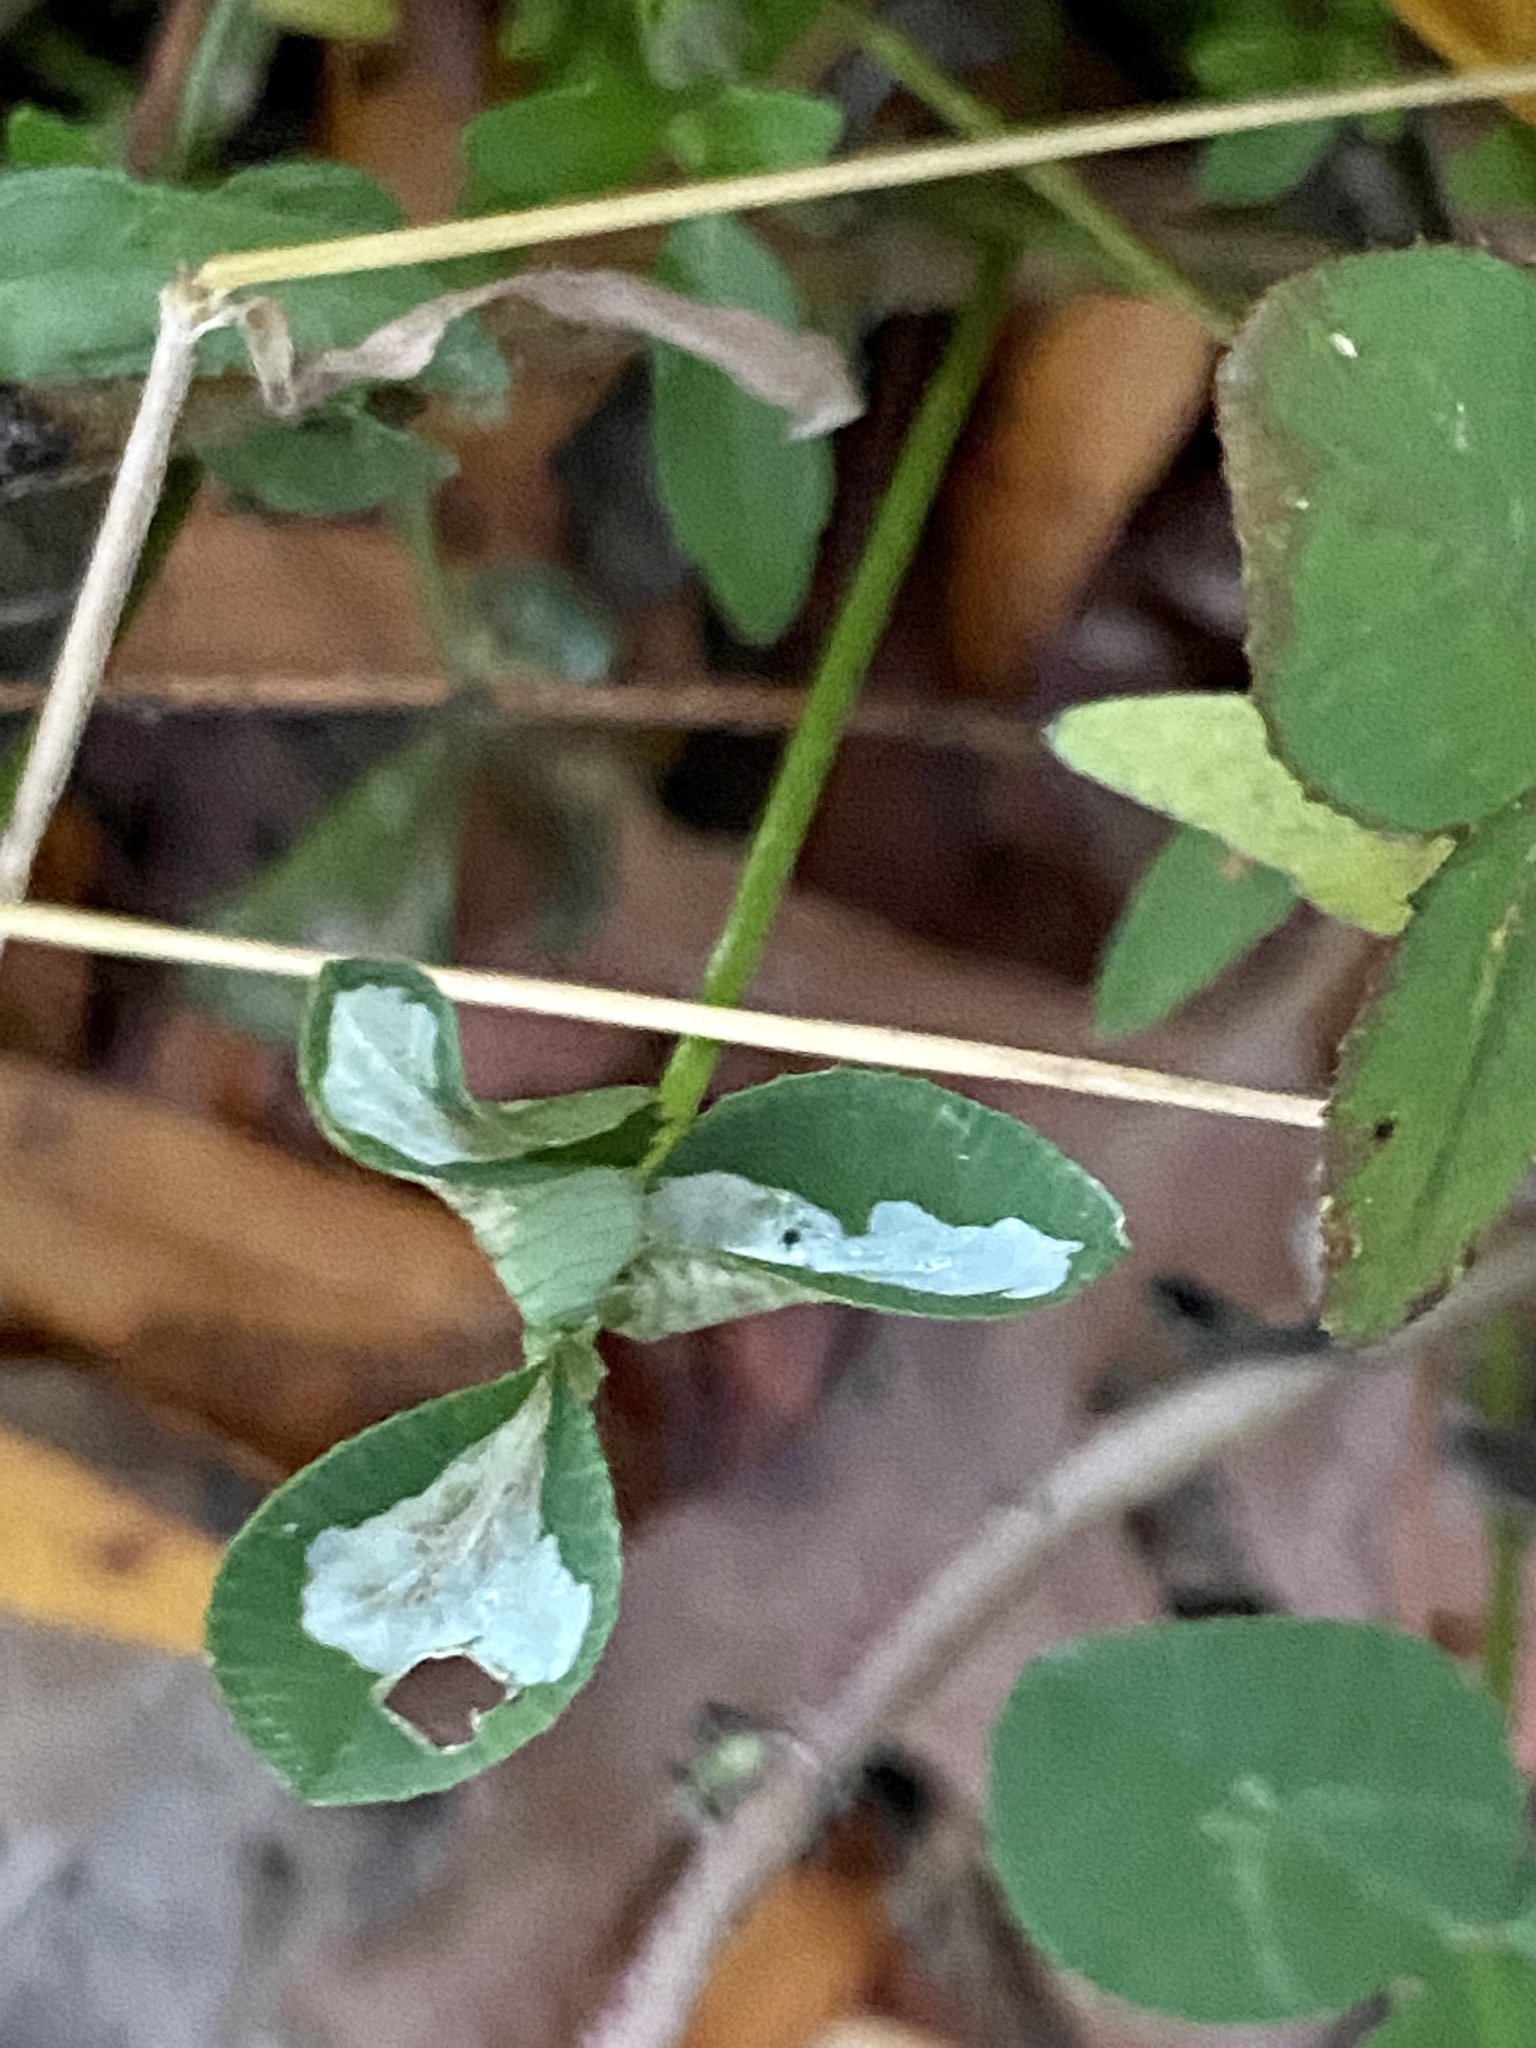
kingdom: Animalia
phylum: Arthropoda
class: Insecta
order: Lepidoptera
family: Gracillariidae
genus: Porphyrosela
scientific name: Porphyrosela minuta
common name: Leaf miner moth
